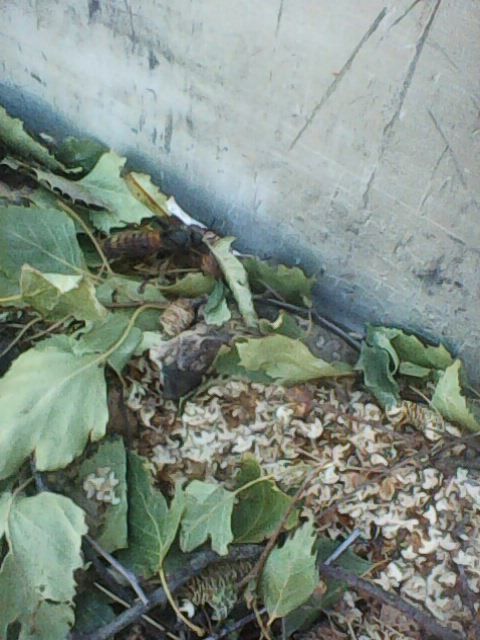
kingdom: Animalia
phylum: Arthropoda
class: Insecta
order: Hymenoptera
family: Siricidae
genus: Tremex
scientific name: Tremex fuscicornis
